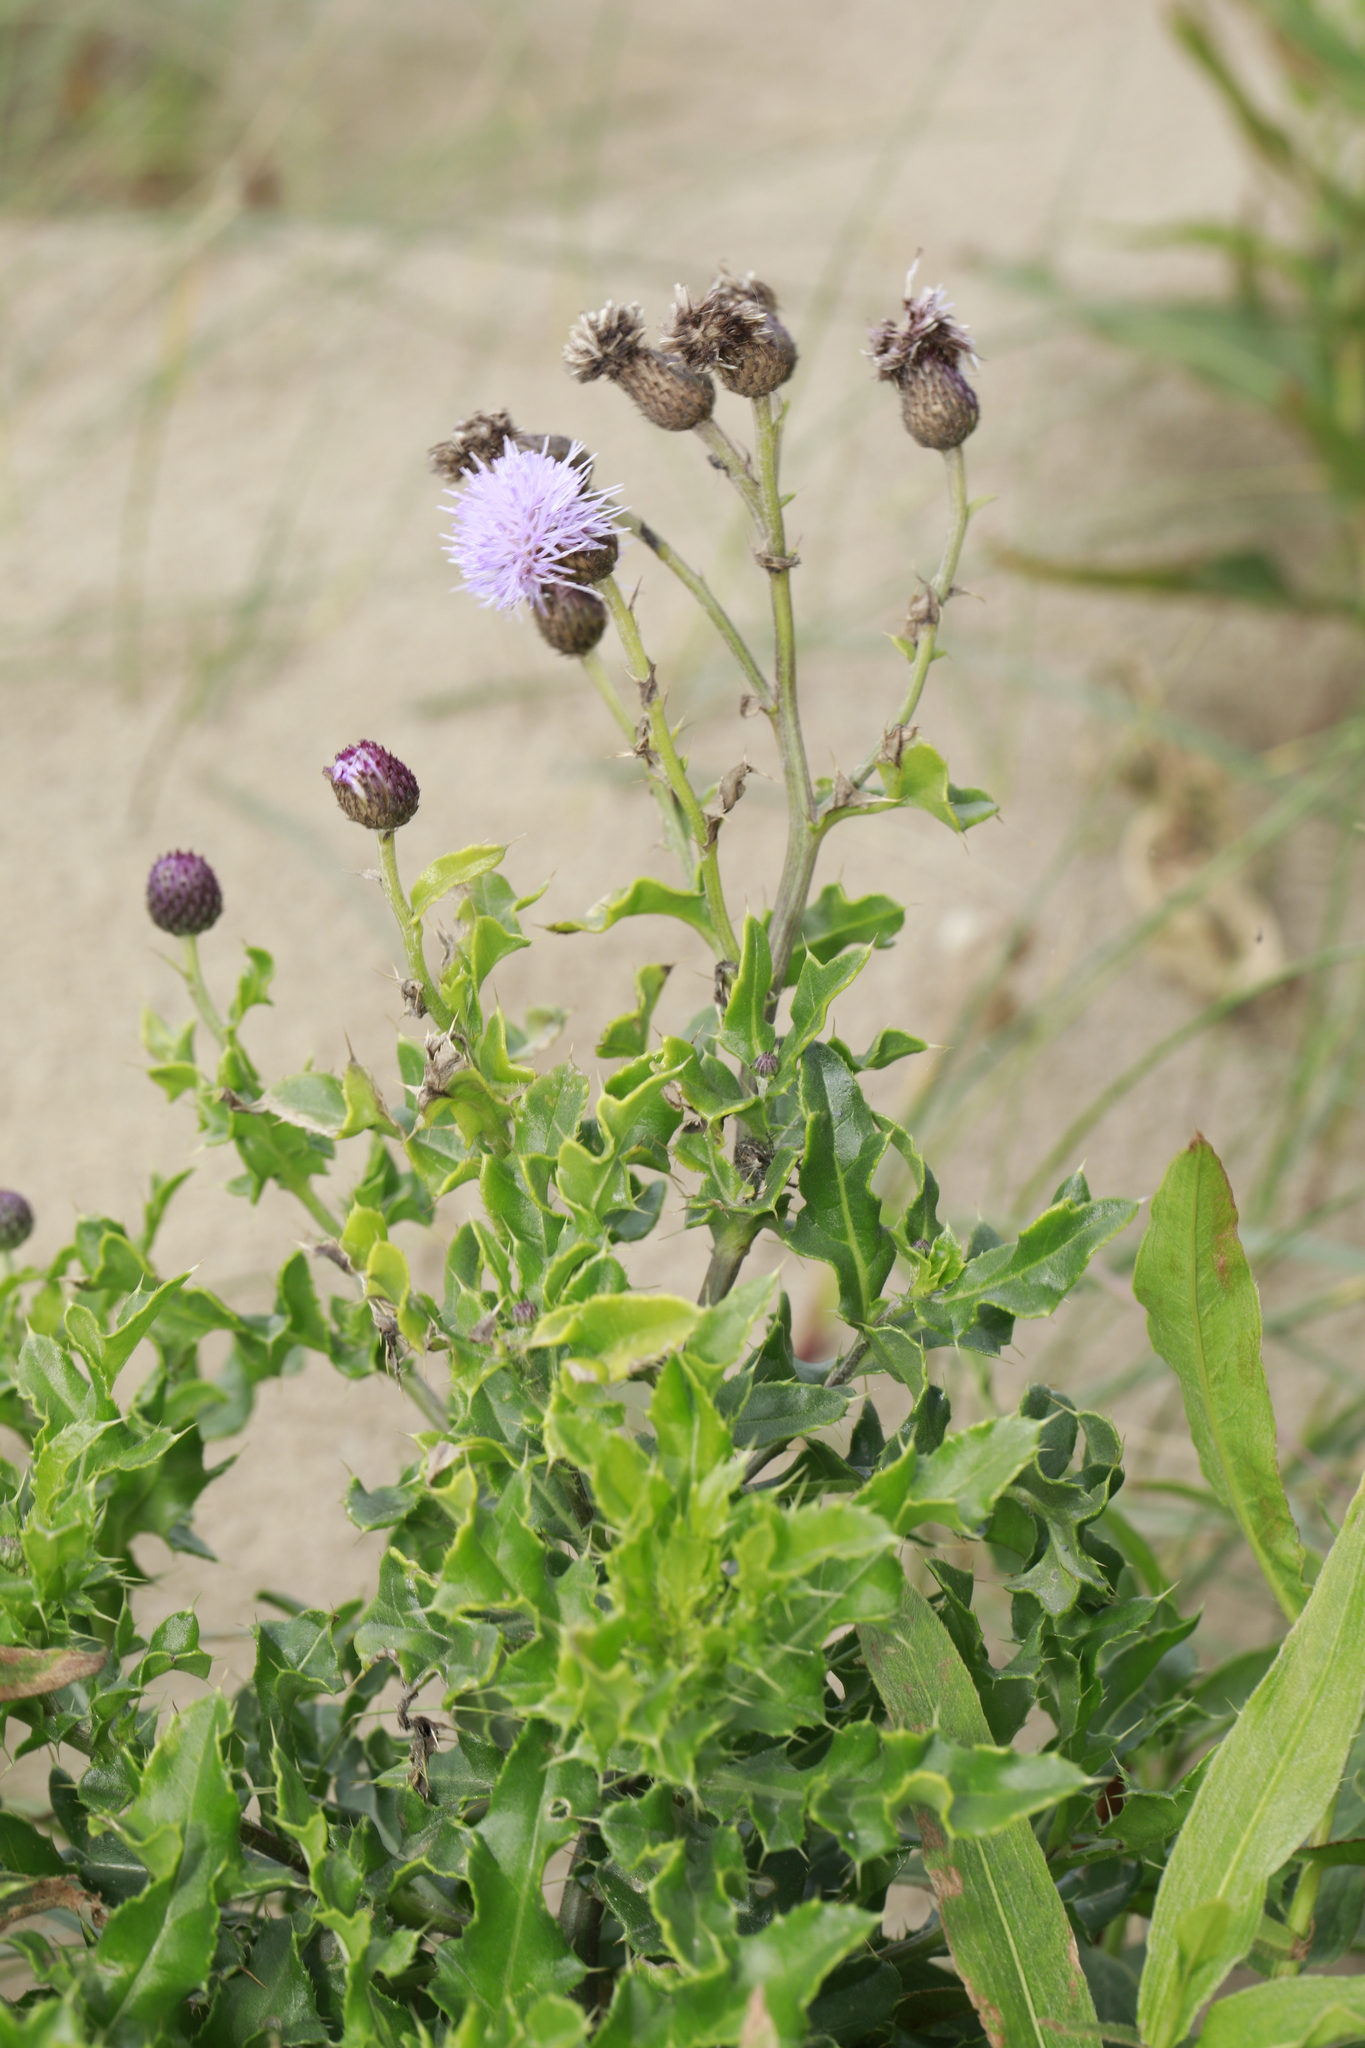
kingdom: Plantae
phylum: Tracheophyta
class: Magnoliopsida
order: Asterales
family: Asteraceae
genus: Cirsium
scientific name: Cirsium arvense
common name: Creeping thistle
